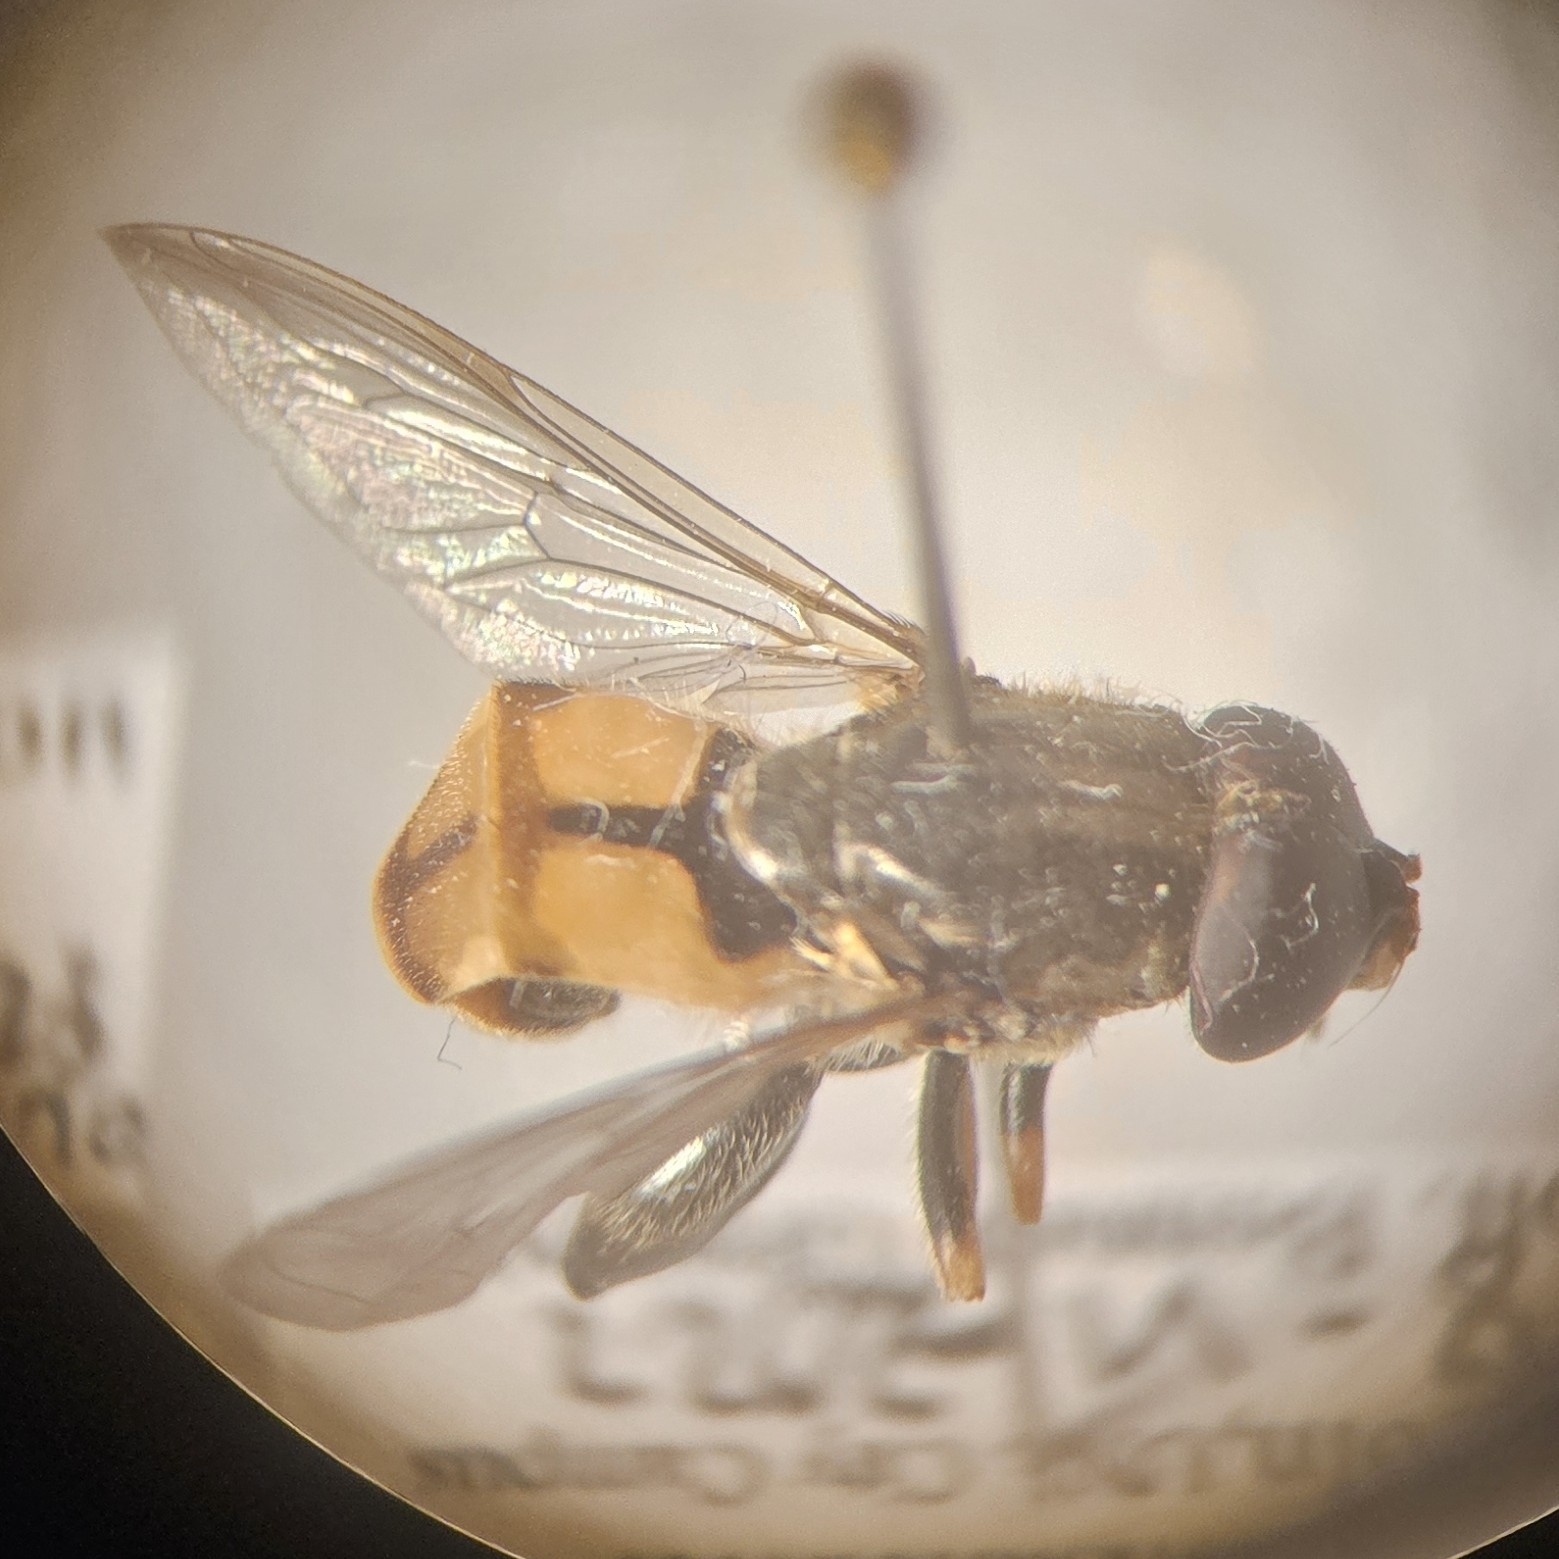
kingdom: Animalia
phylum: Arthropoda
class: Insecta
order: Diptera
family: Syrphidae
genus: Tropidia
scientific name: Tropidia quadrata
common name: Common thick-legged fly
